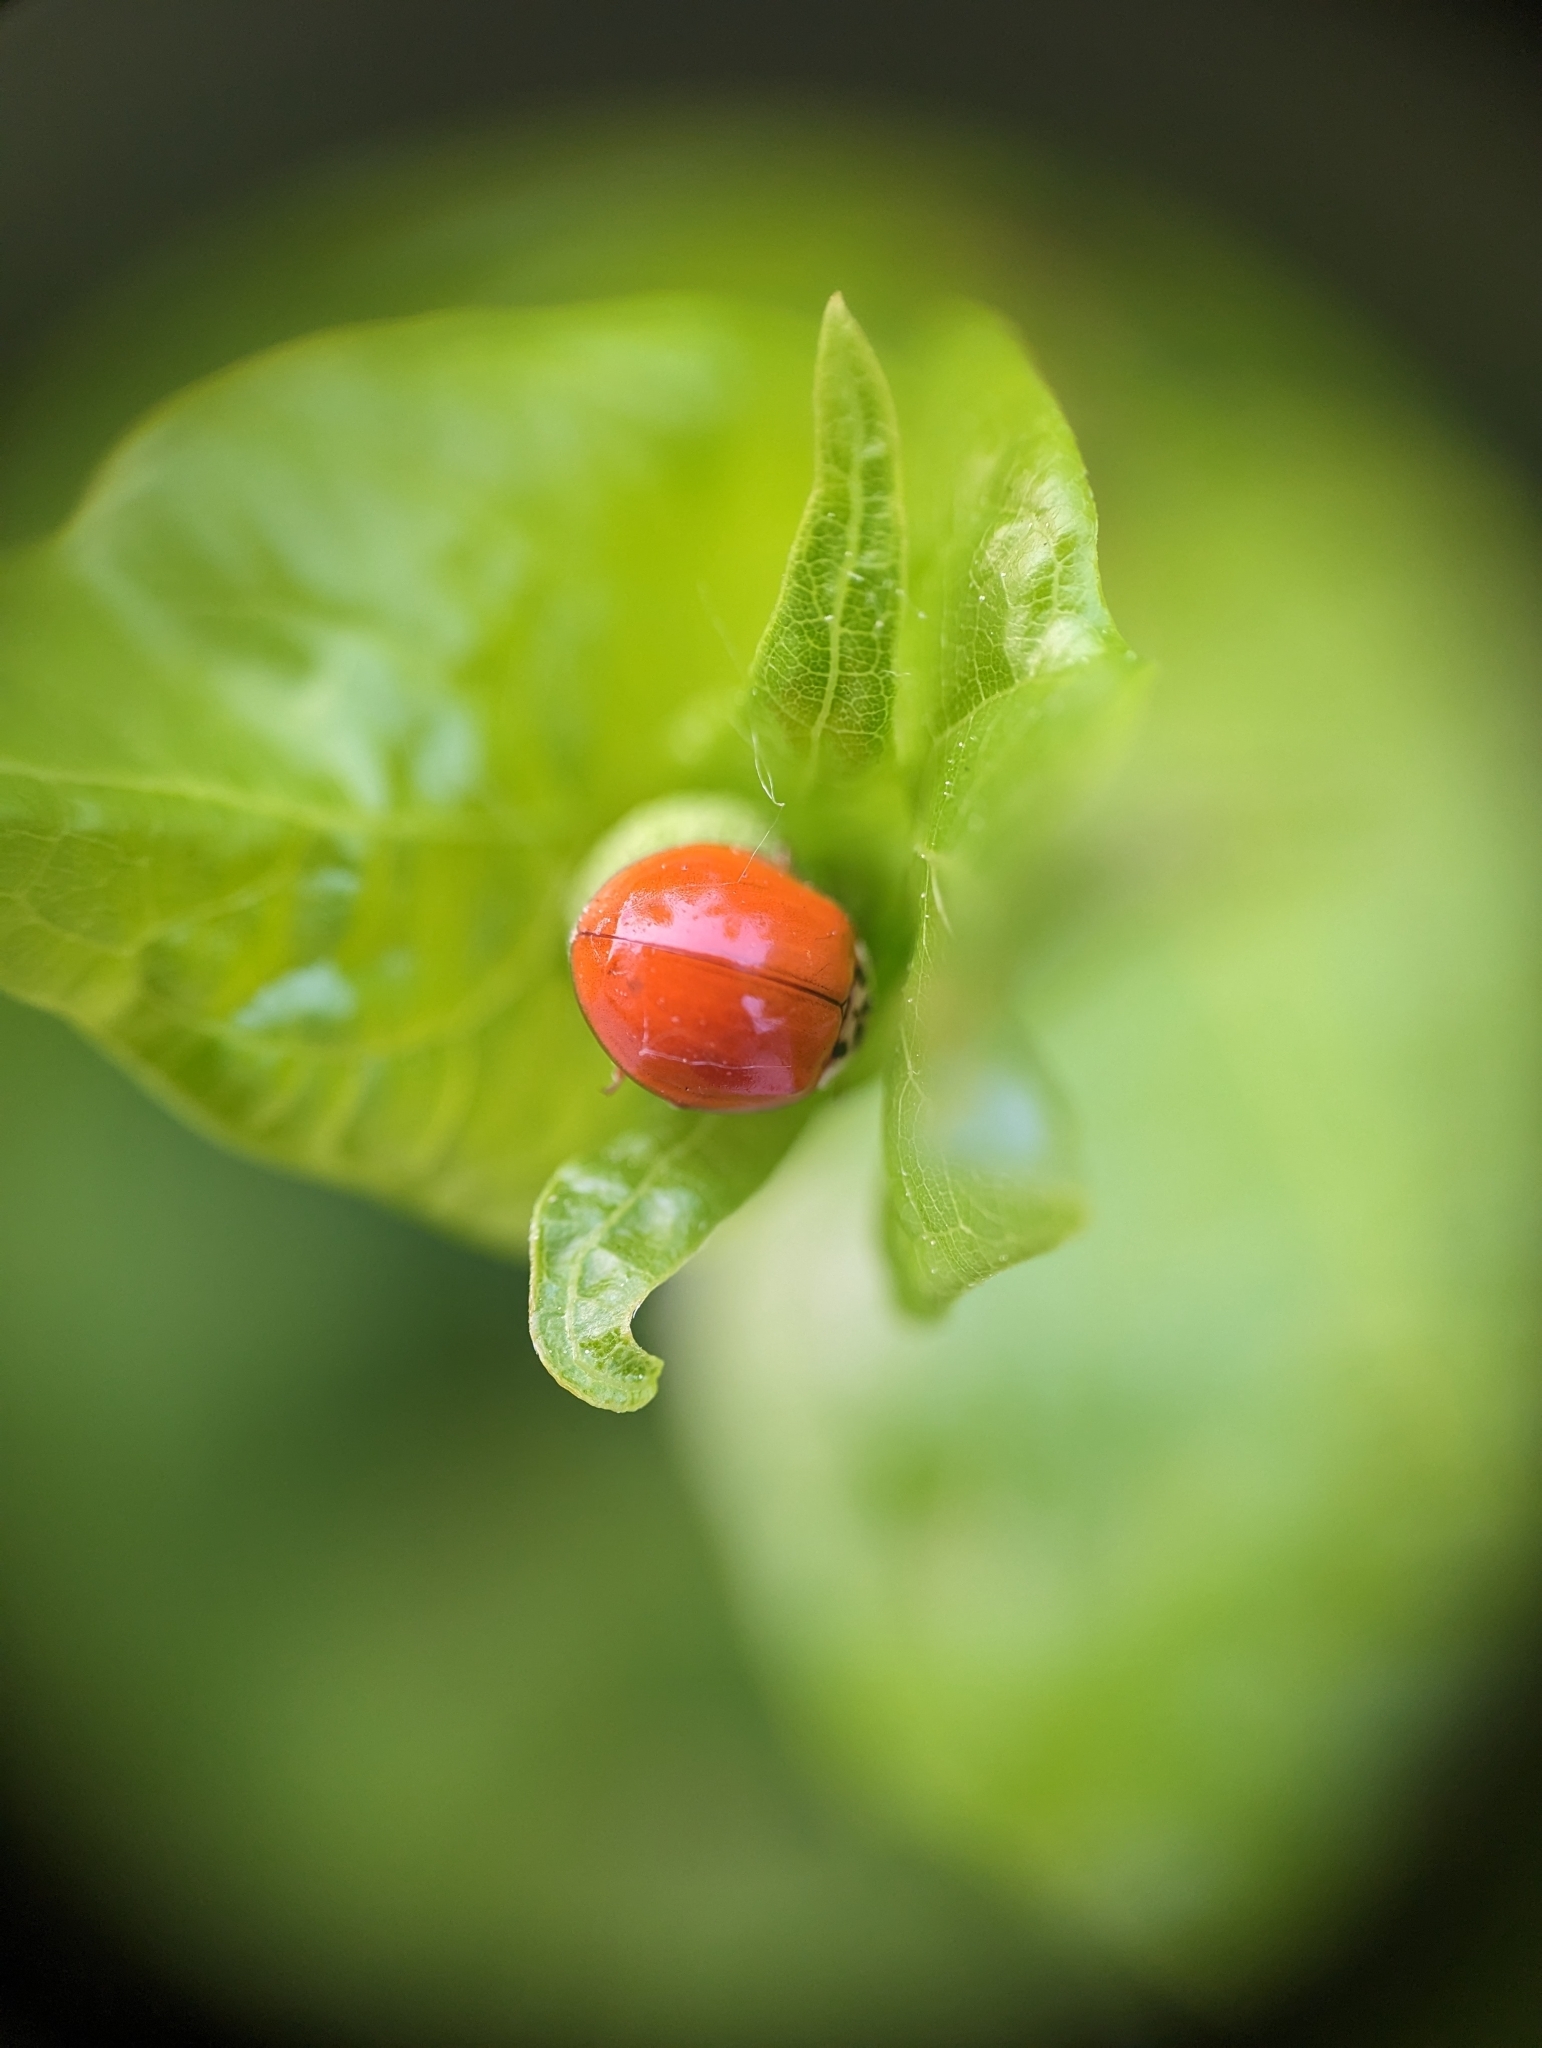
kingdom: Animalia
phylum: Arthropoda
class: Insecta
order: Coleoptera
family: Coccinellidae
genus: Harmonia
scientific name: Harmonia axyridis
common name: Harlequin ladybird
